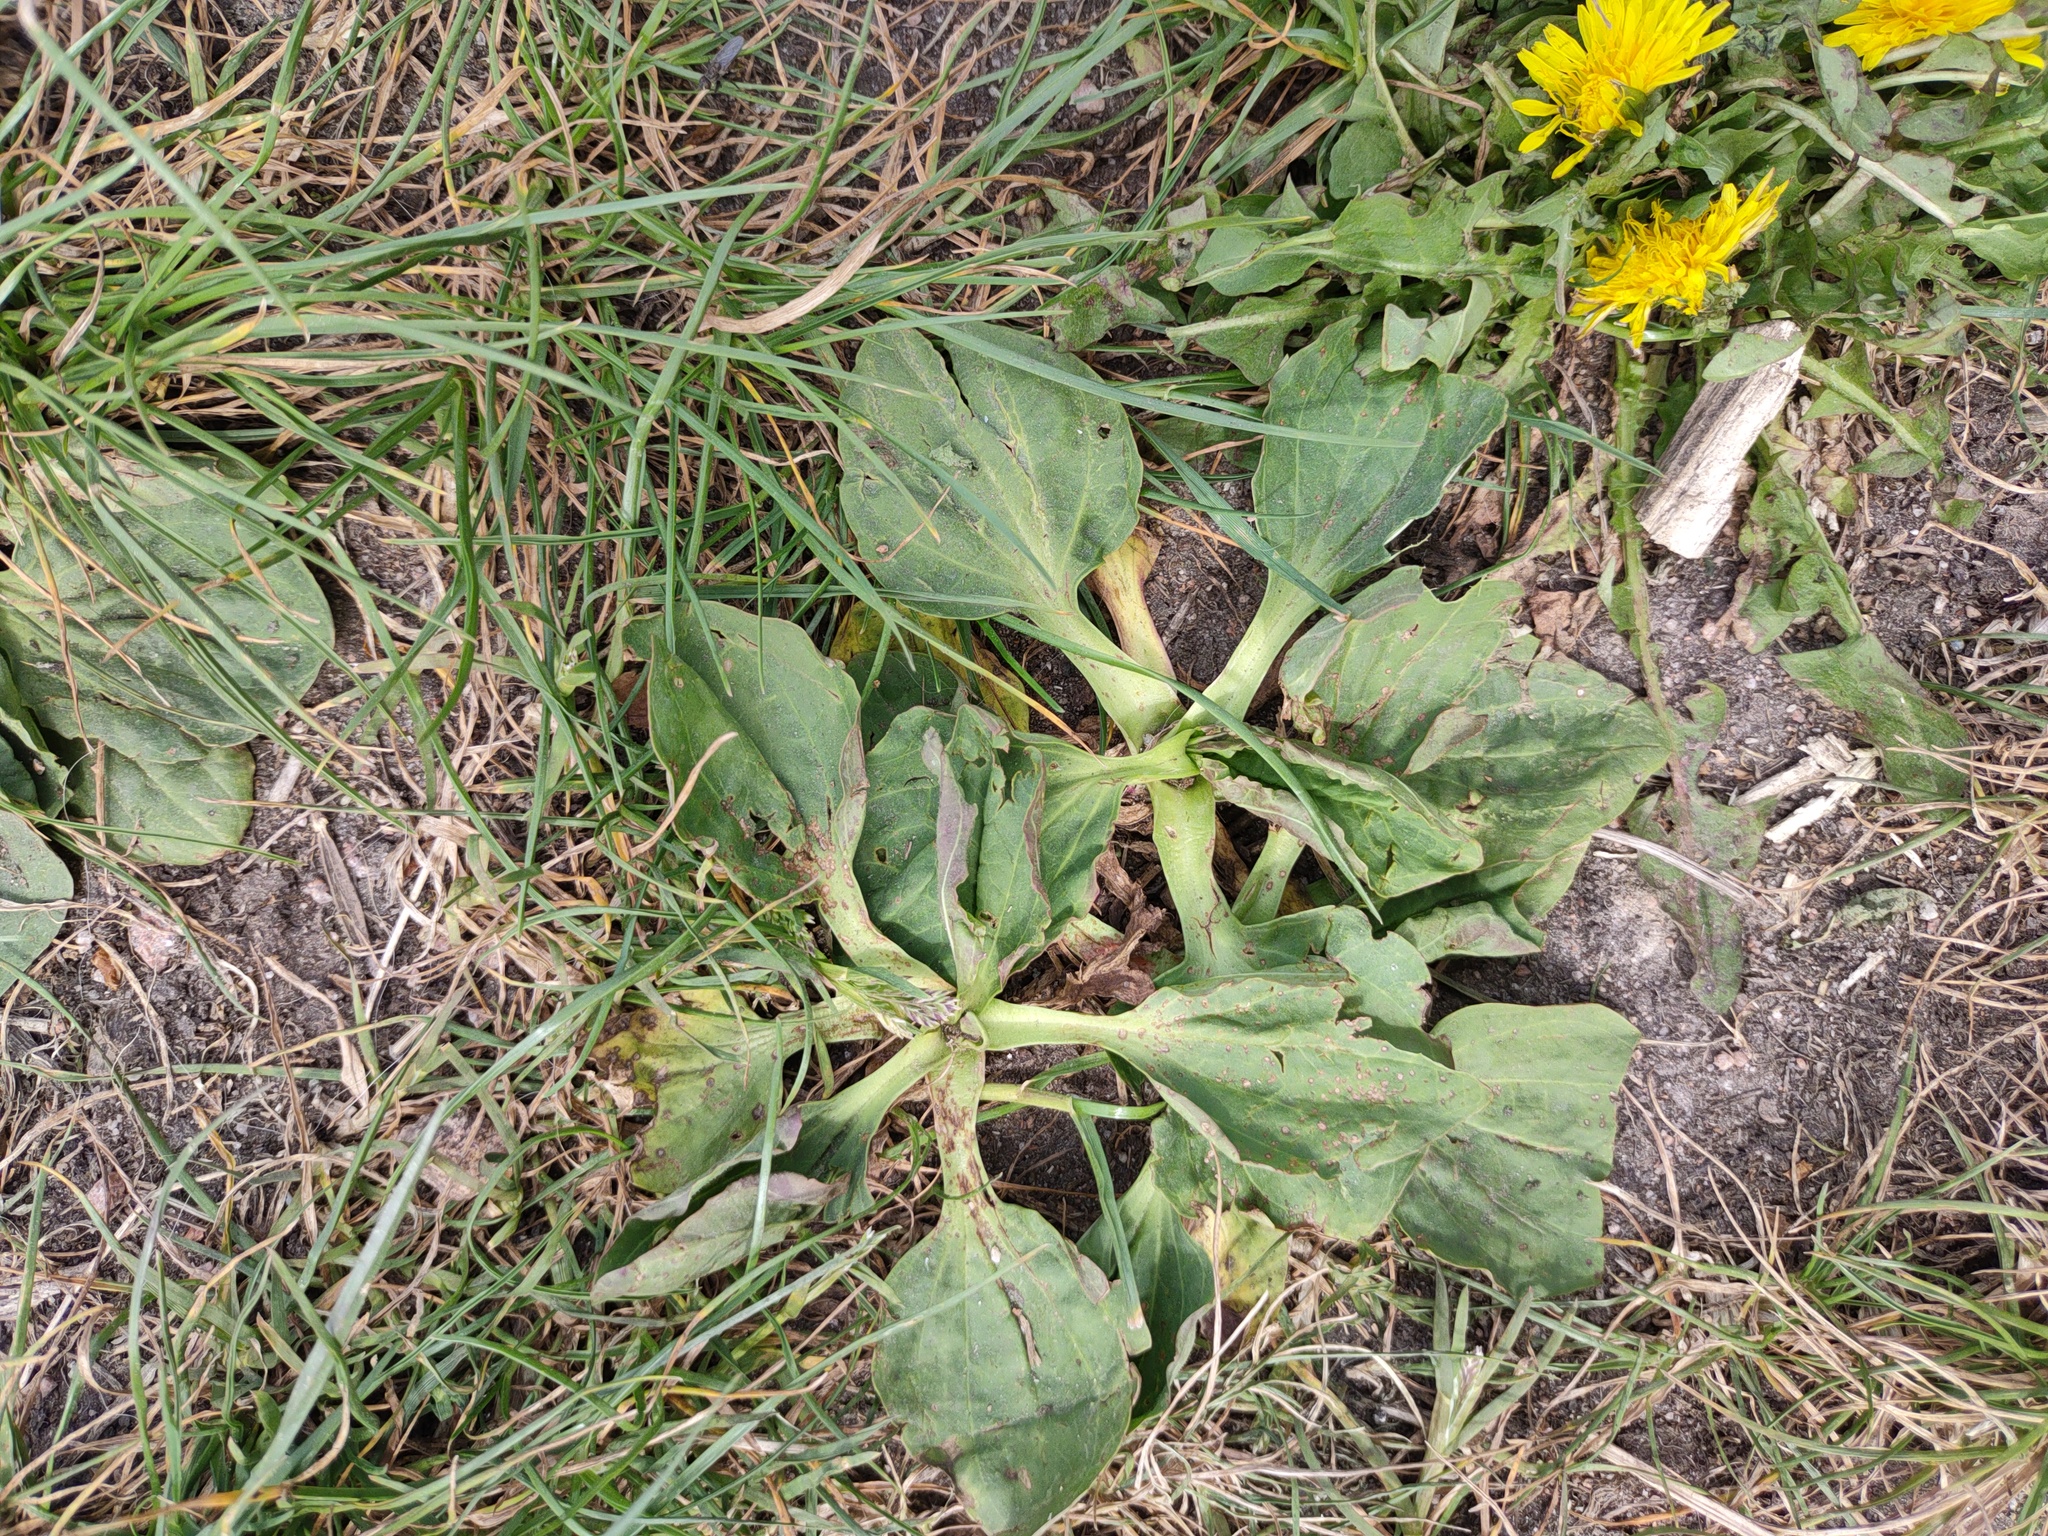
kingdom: Plantae
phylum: Tracheophyta
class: Magnoliopsida
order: Lamiales
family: Plantaginaceae
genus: Plantago
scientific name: Plantago major
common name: Common plantain
